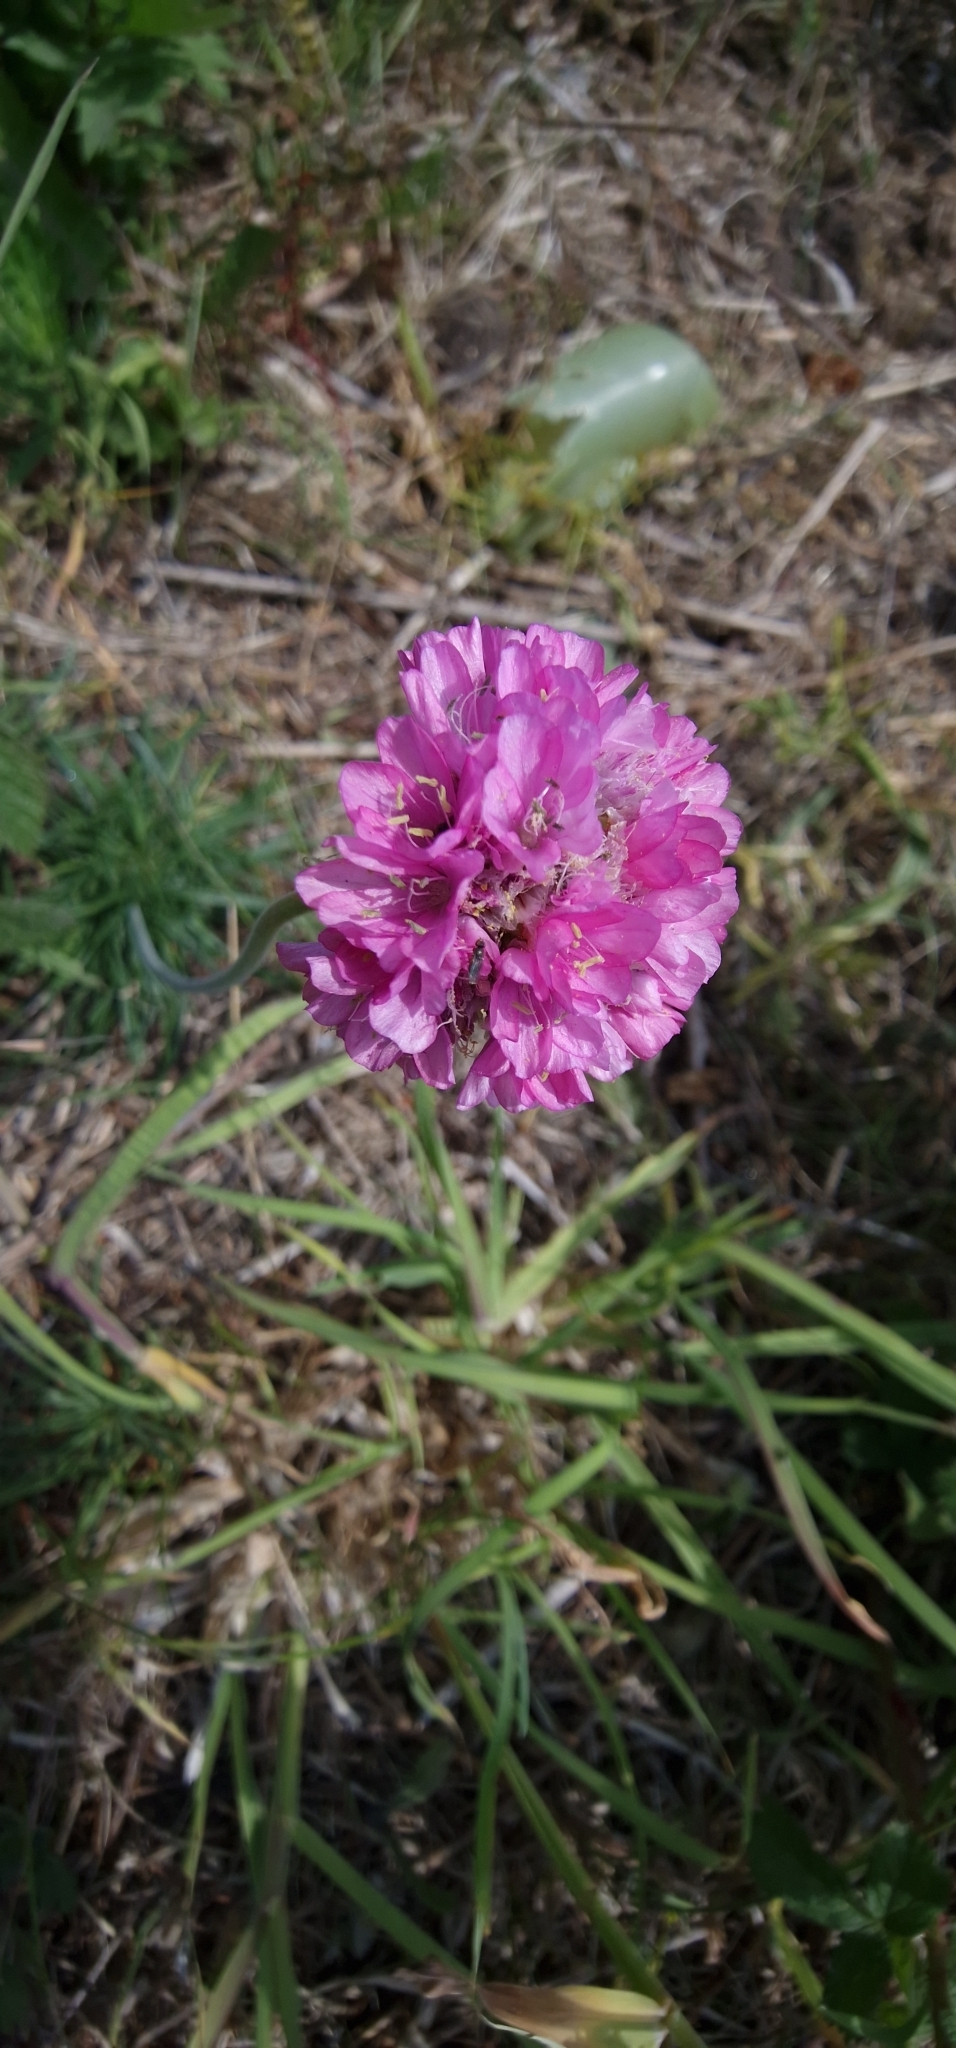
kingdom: Plantae
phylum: Tracheophyta
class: Magnoliopsida
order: Caryophyllales
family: Plumbaginaceae
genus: Armeria
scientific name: Armeria maritima
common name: Thrift
